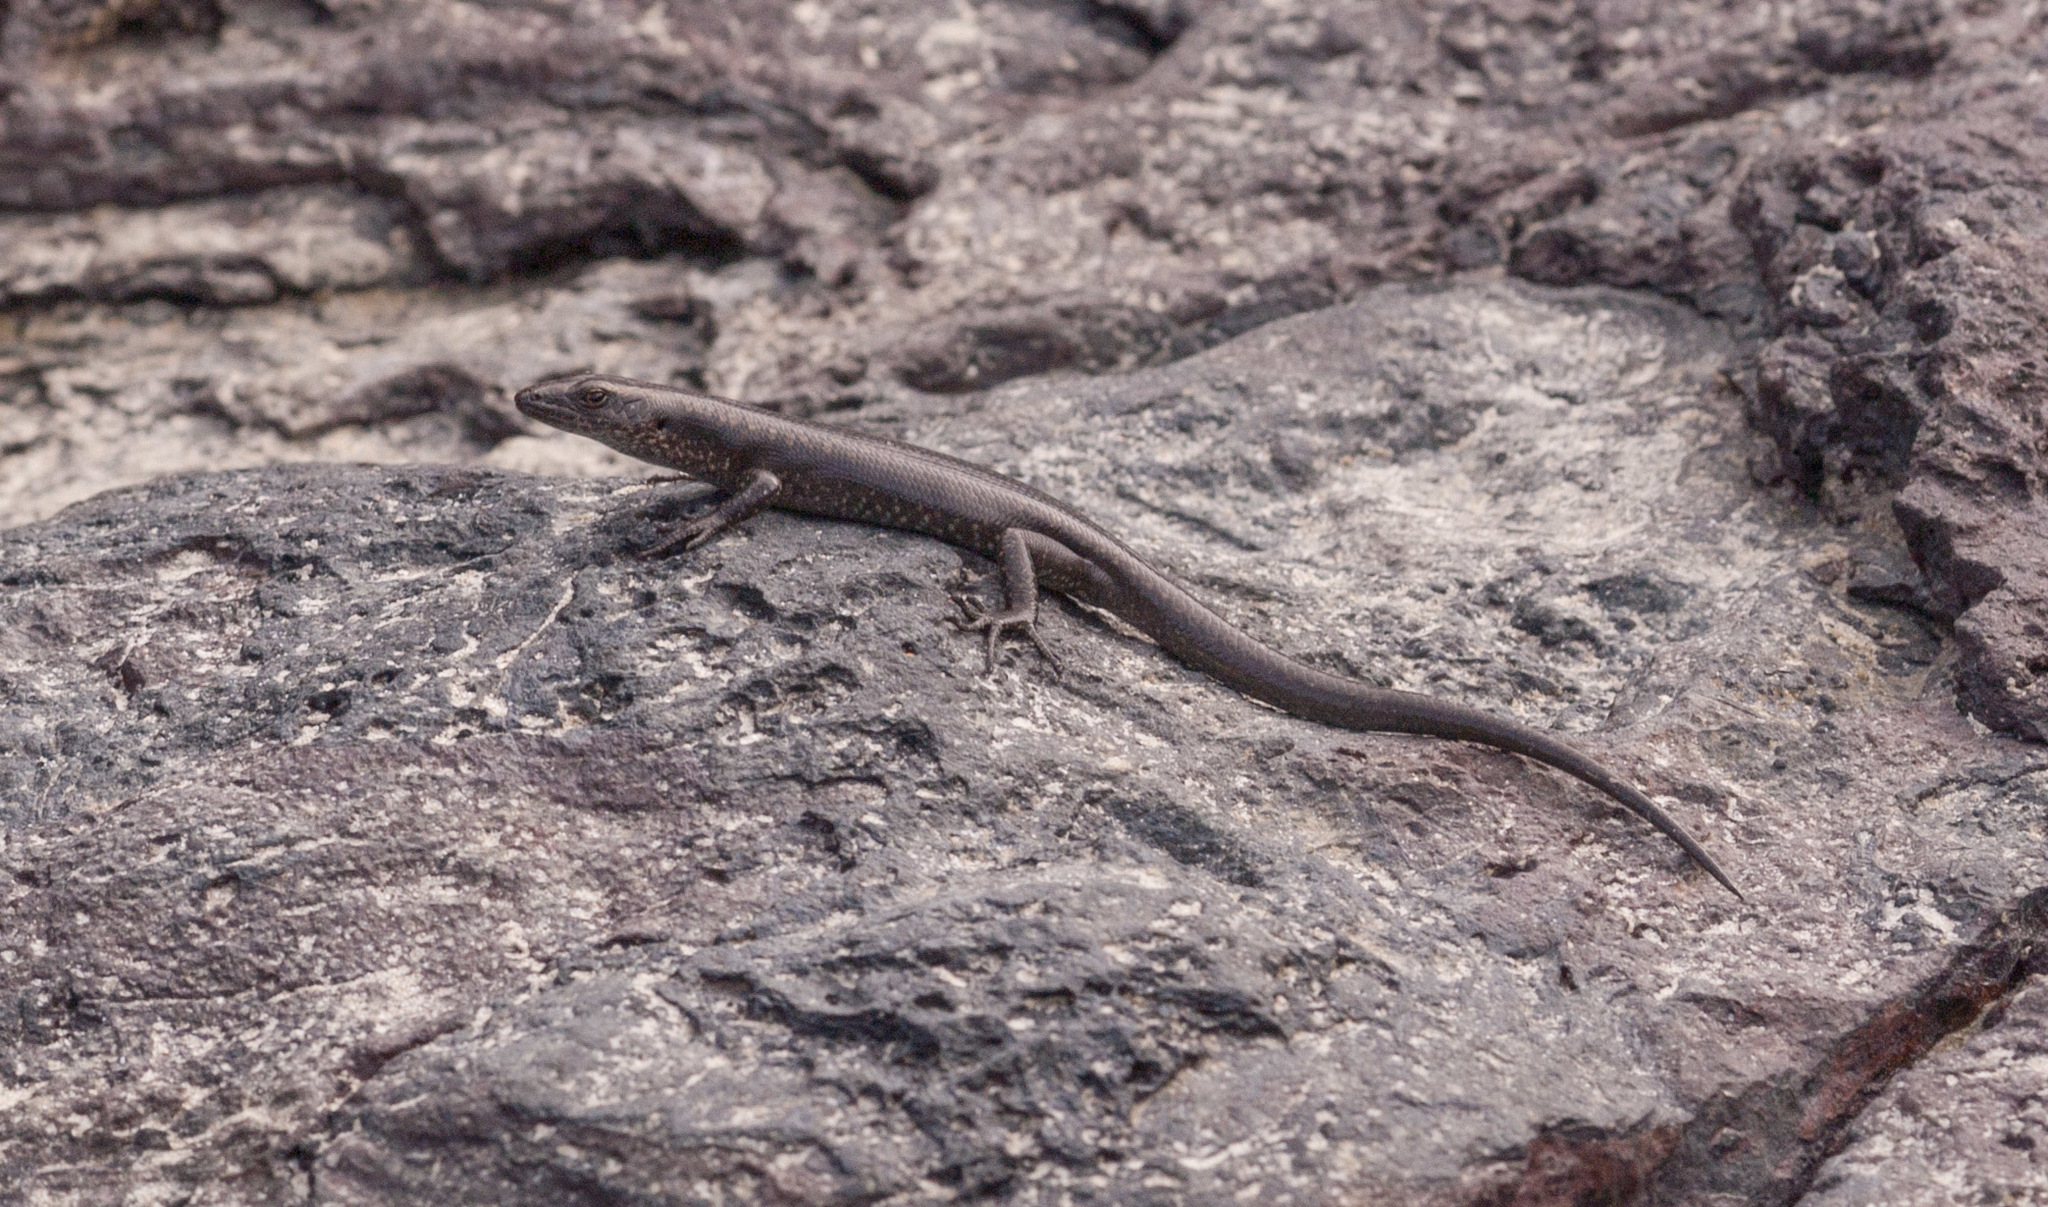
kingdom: Animalia
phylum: Chordata
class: Squamata
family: Scincidae
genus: Emoia
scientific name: Emoia atrocostata
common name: Littoral skink
